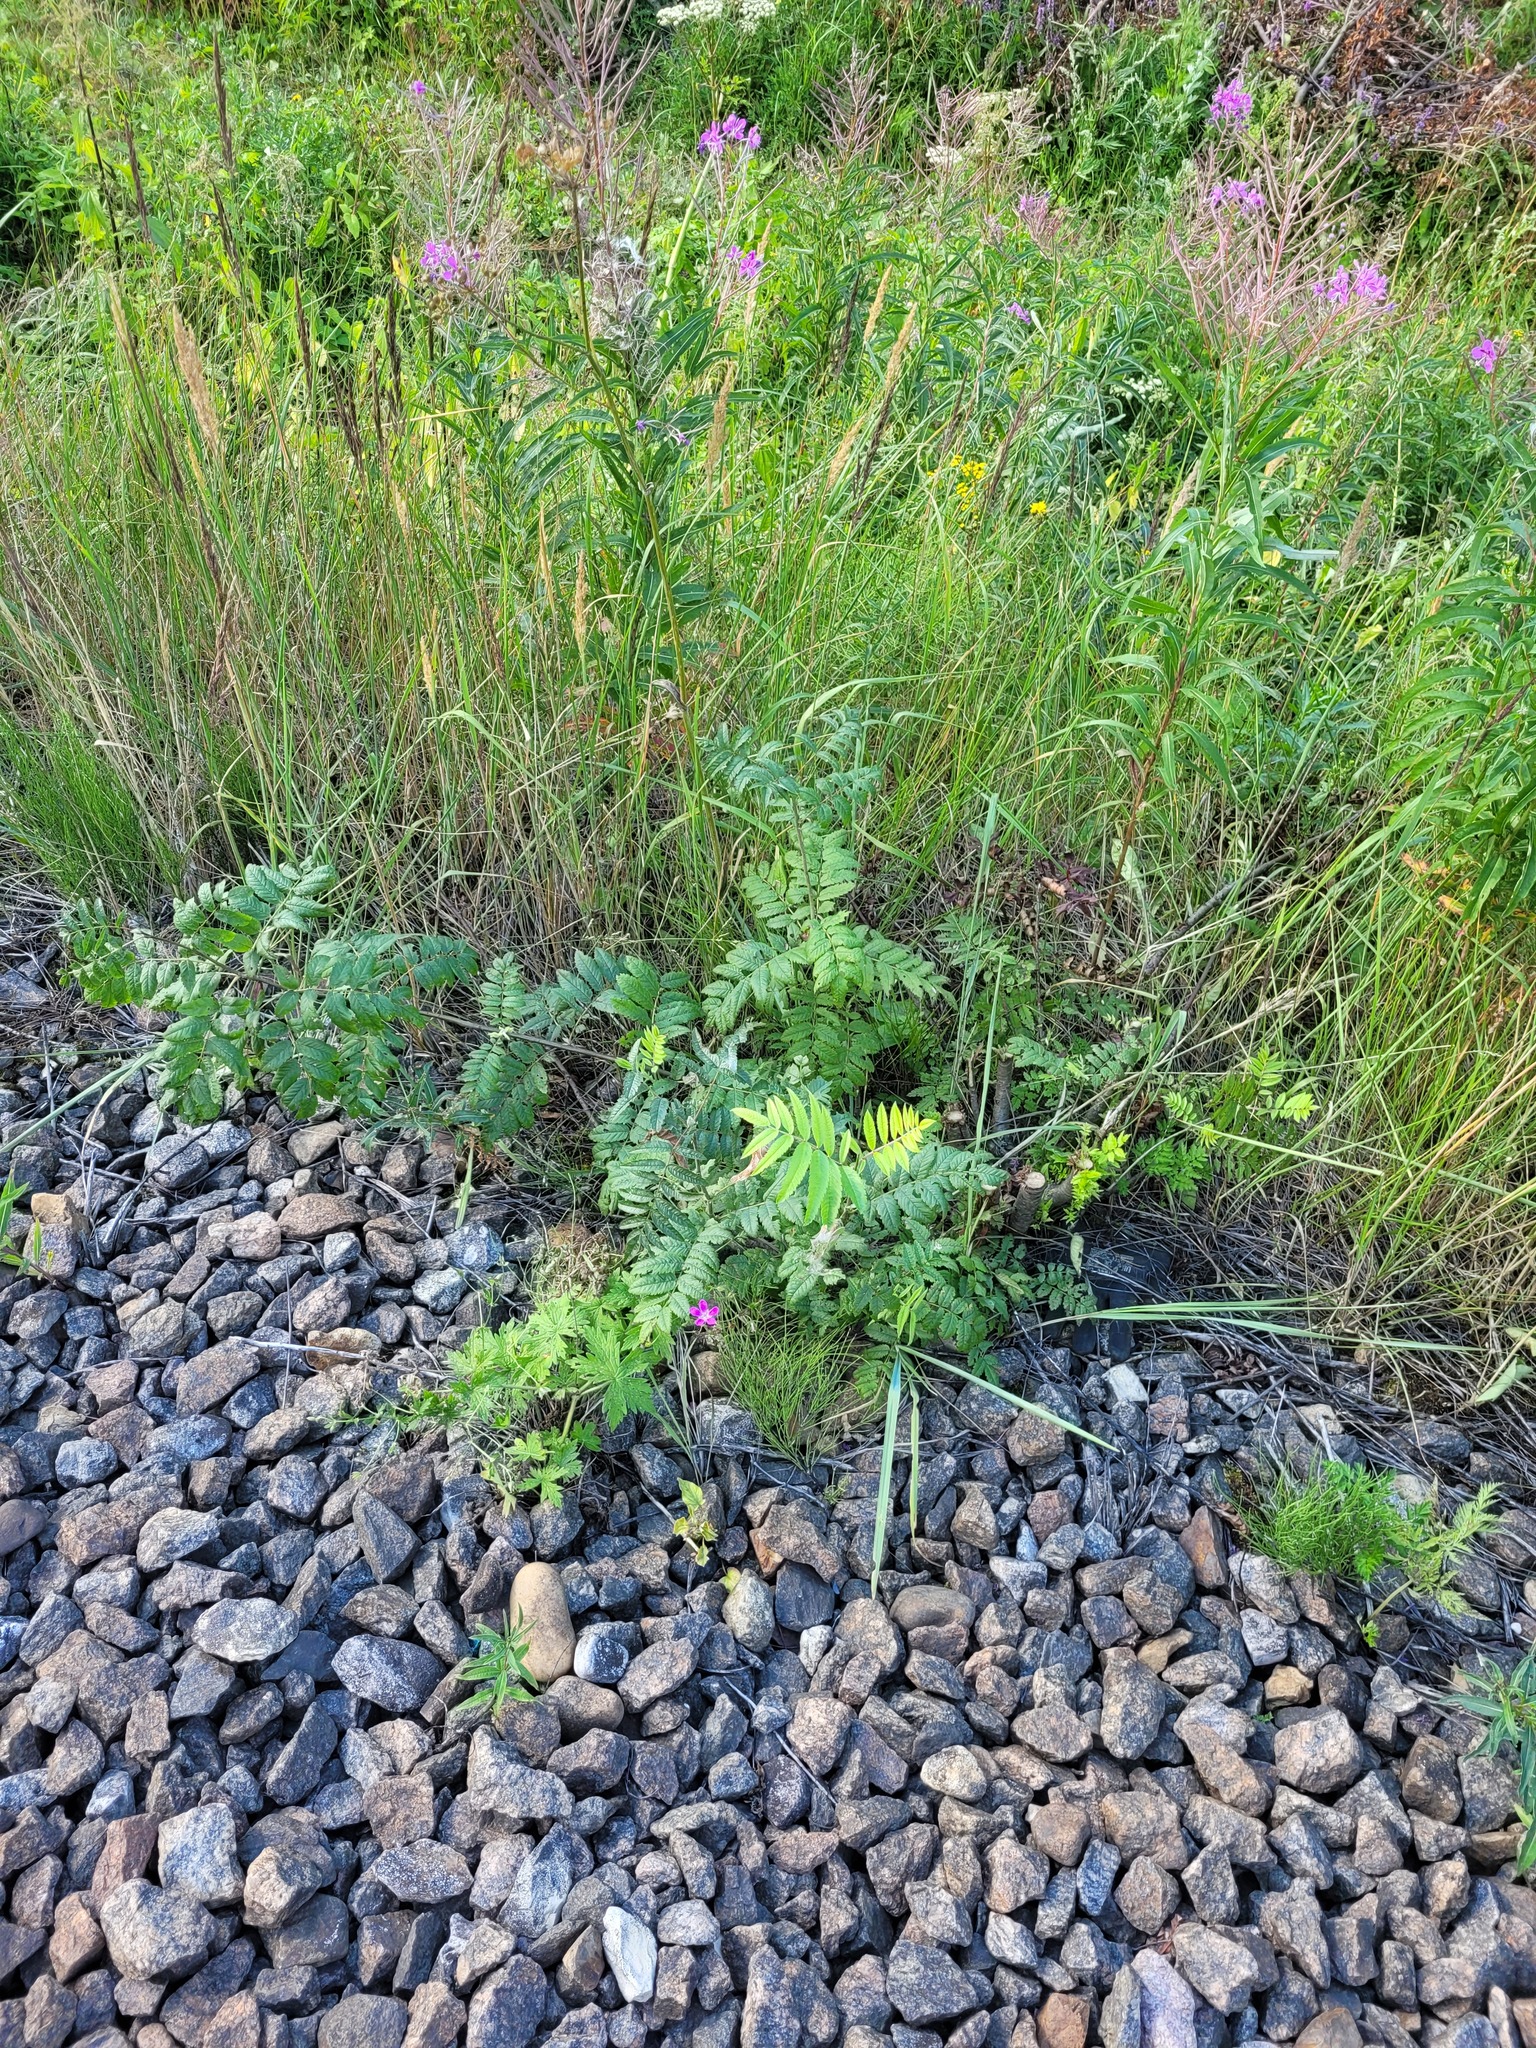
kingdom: Plantae
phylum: Tracheophyta
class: Magnoliopsida
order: Rosales
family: Rosaceae
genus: Sorbus
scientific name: Sorbus aucuparia
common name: Rowan
